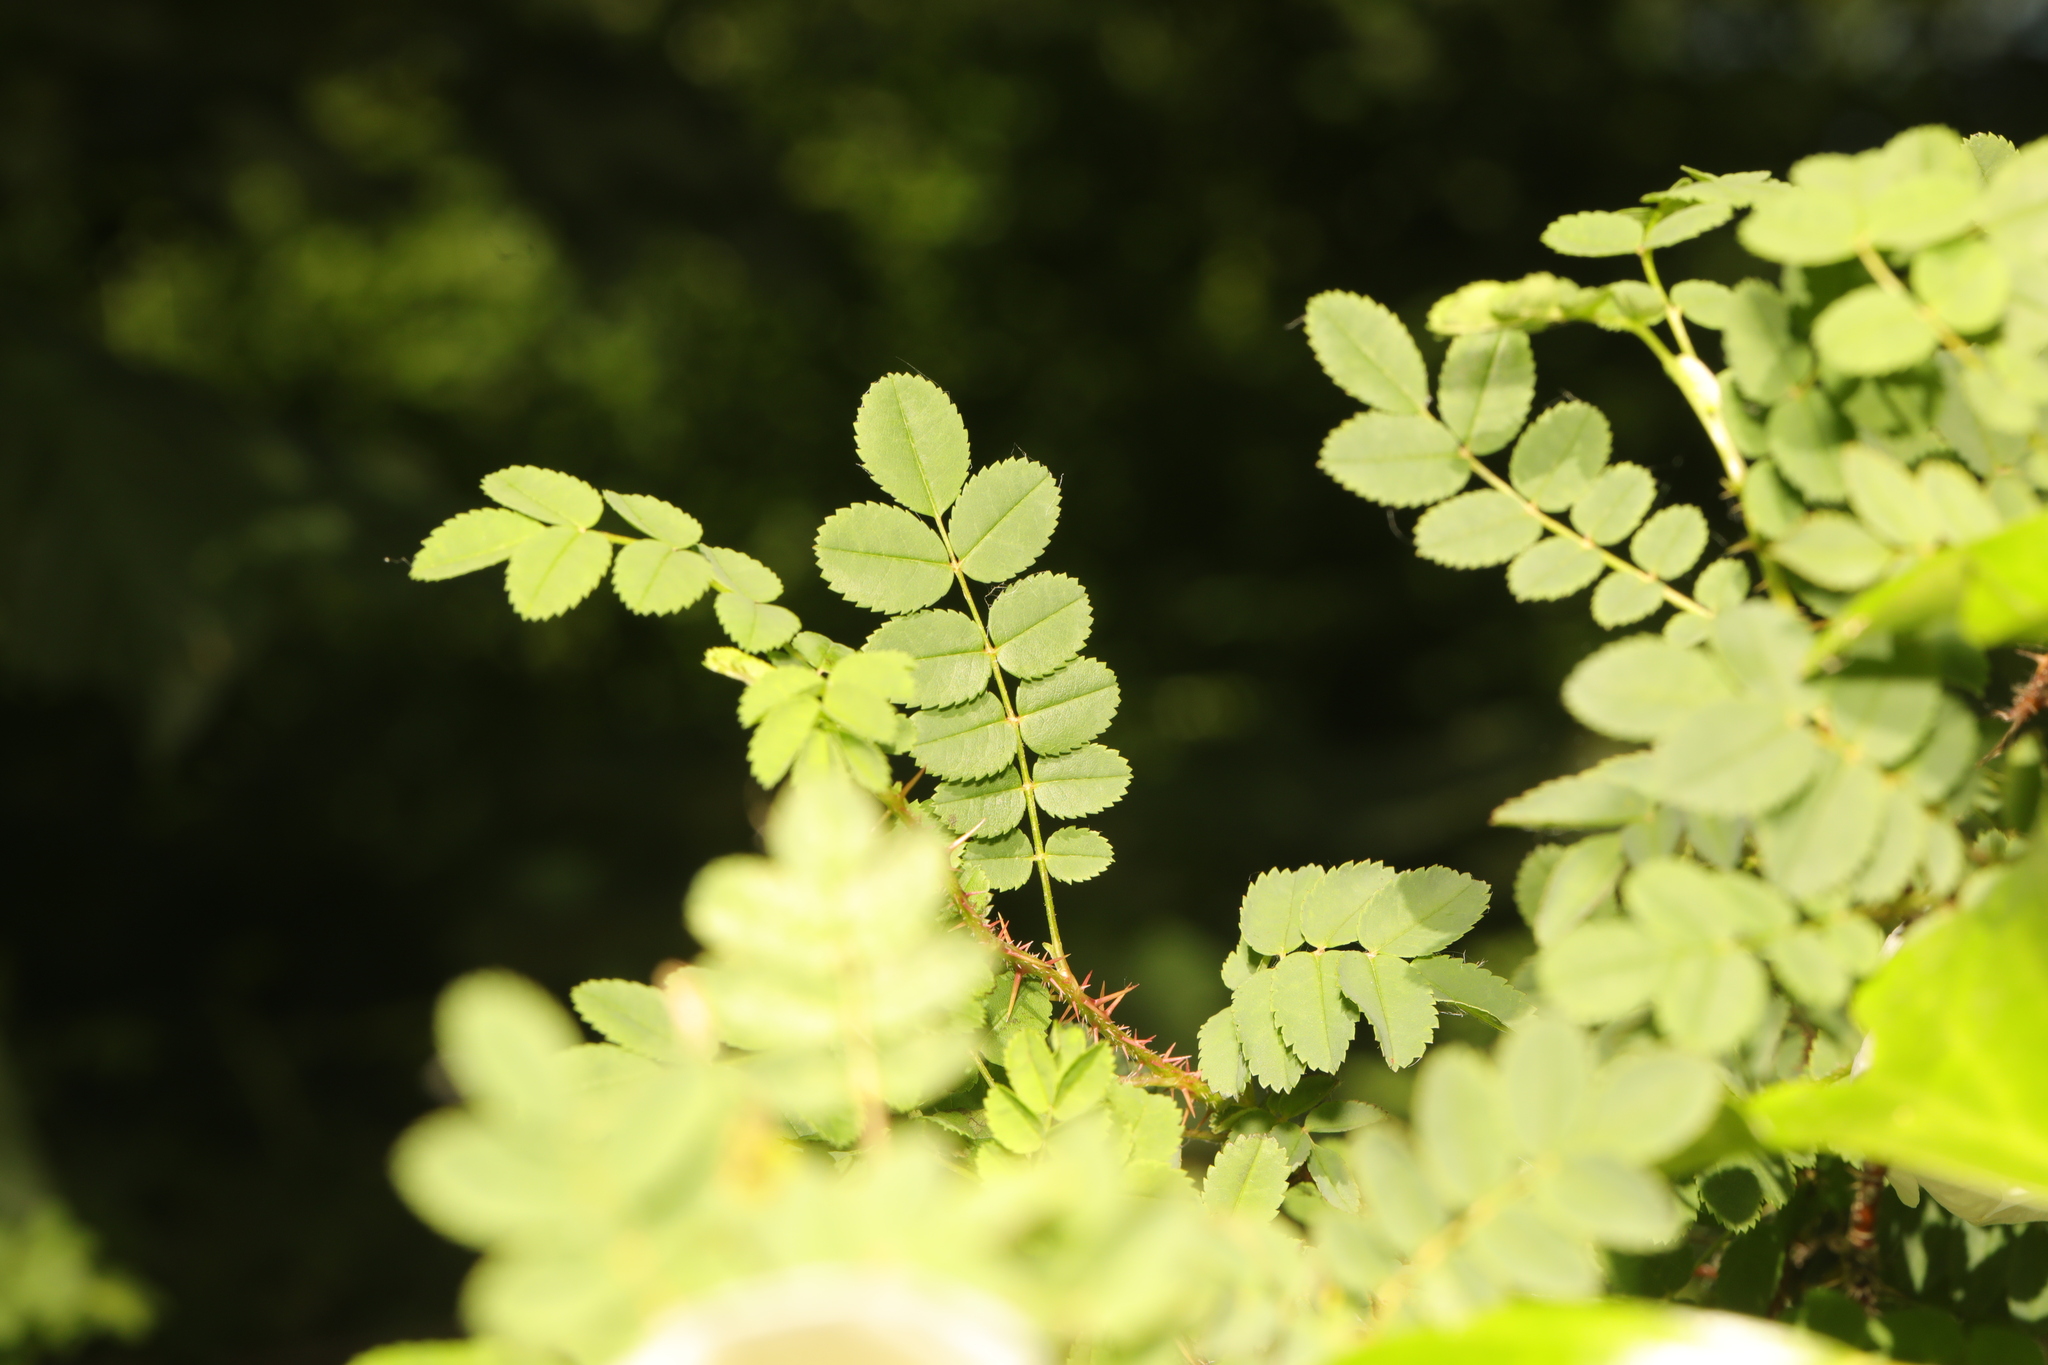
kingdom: Plantae
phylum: Tracheophyta
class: Magnoliopsida
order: Rosales
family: Rosaceae
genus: Rosa
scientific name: Rosa spinosissima
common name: Burnet rose
